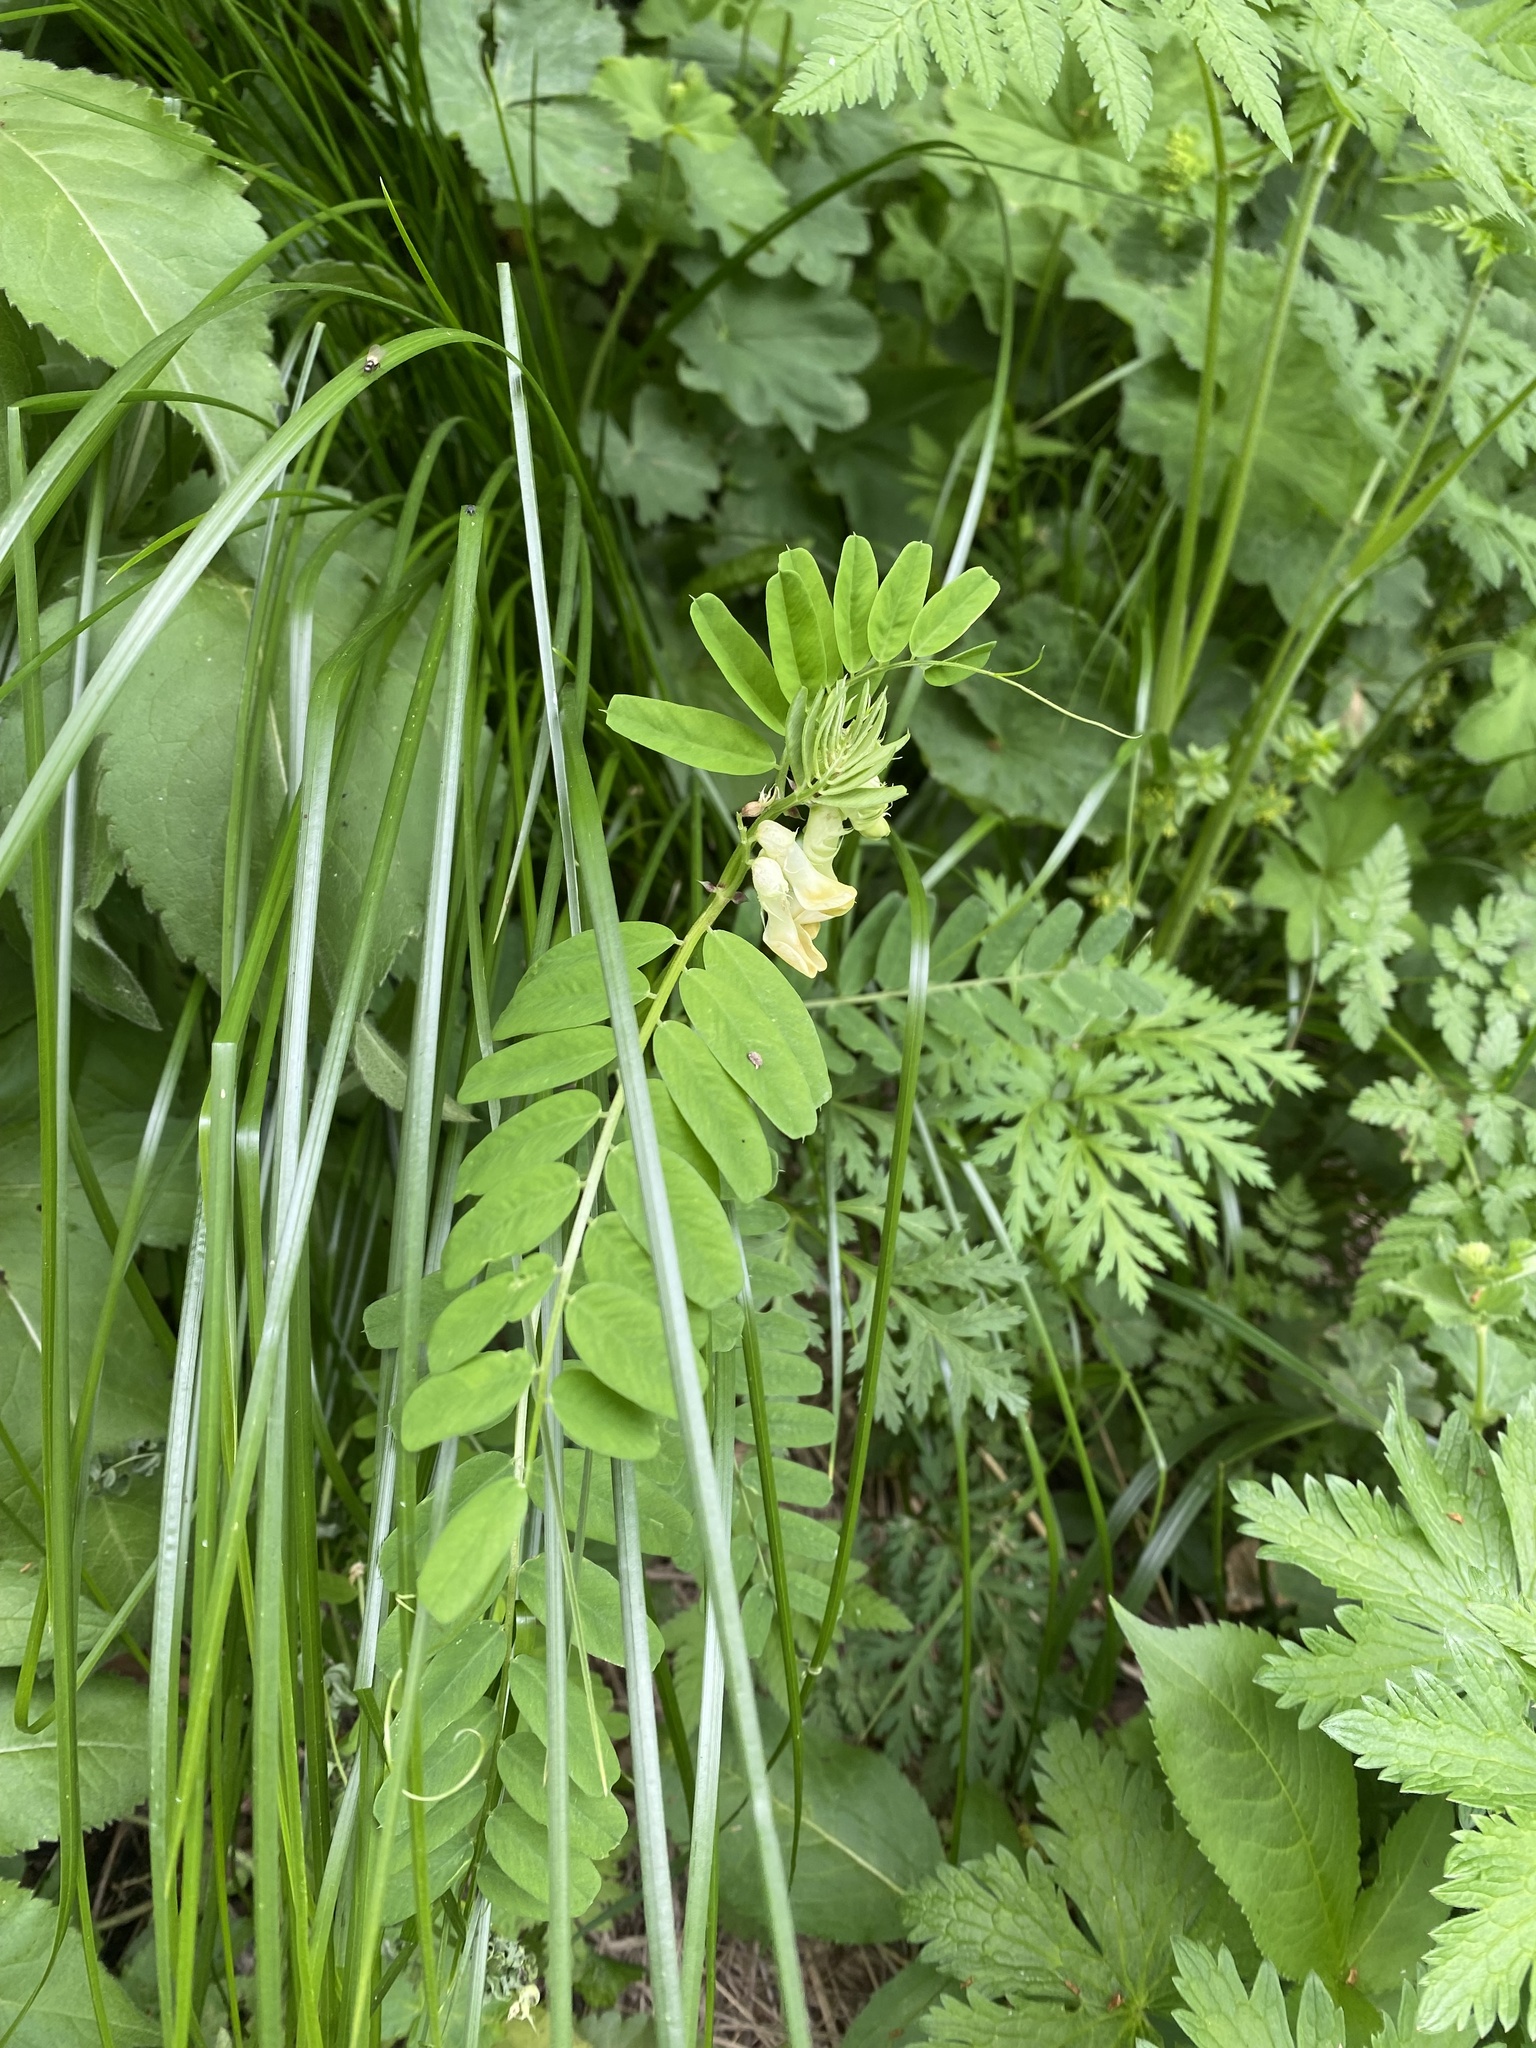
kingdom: Plantae
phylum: Tracheophyta
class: Magnoliopsida
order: Fabales
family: Fabaceae
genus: Vicia
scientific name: Vicia balansae
